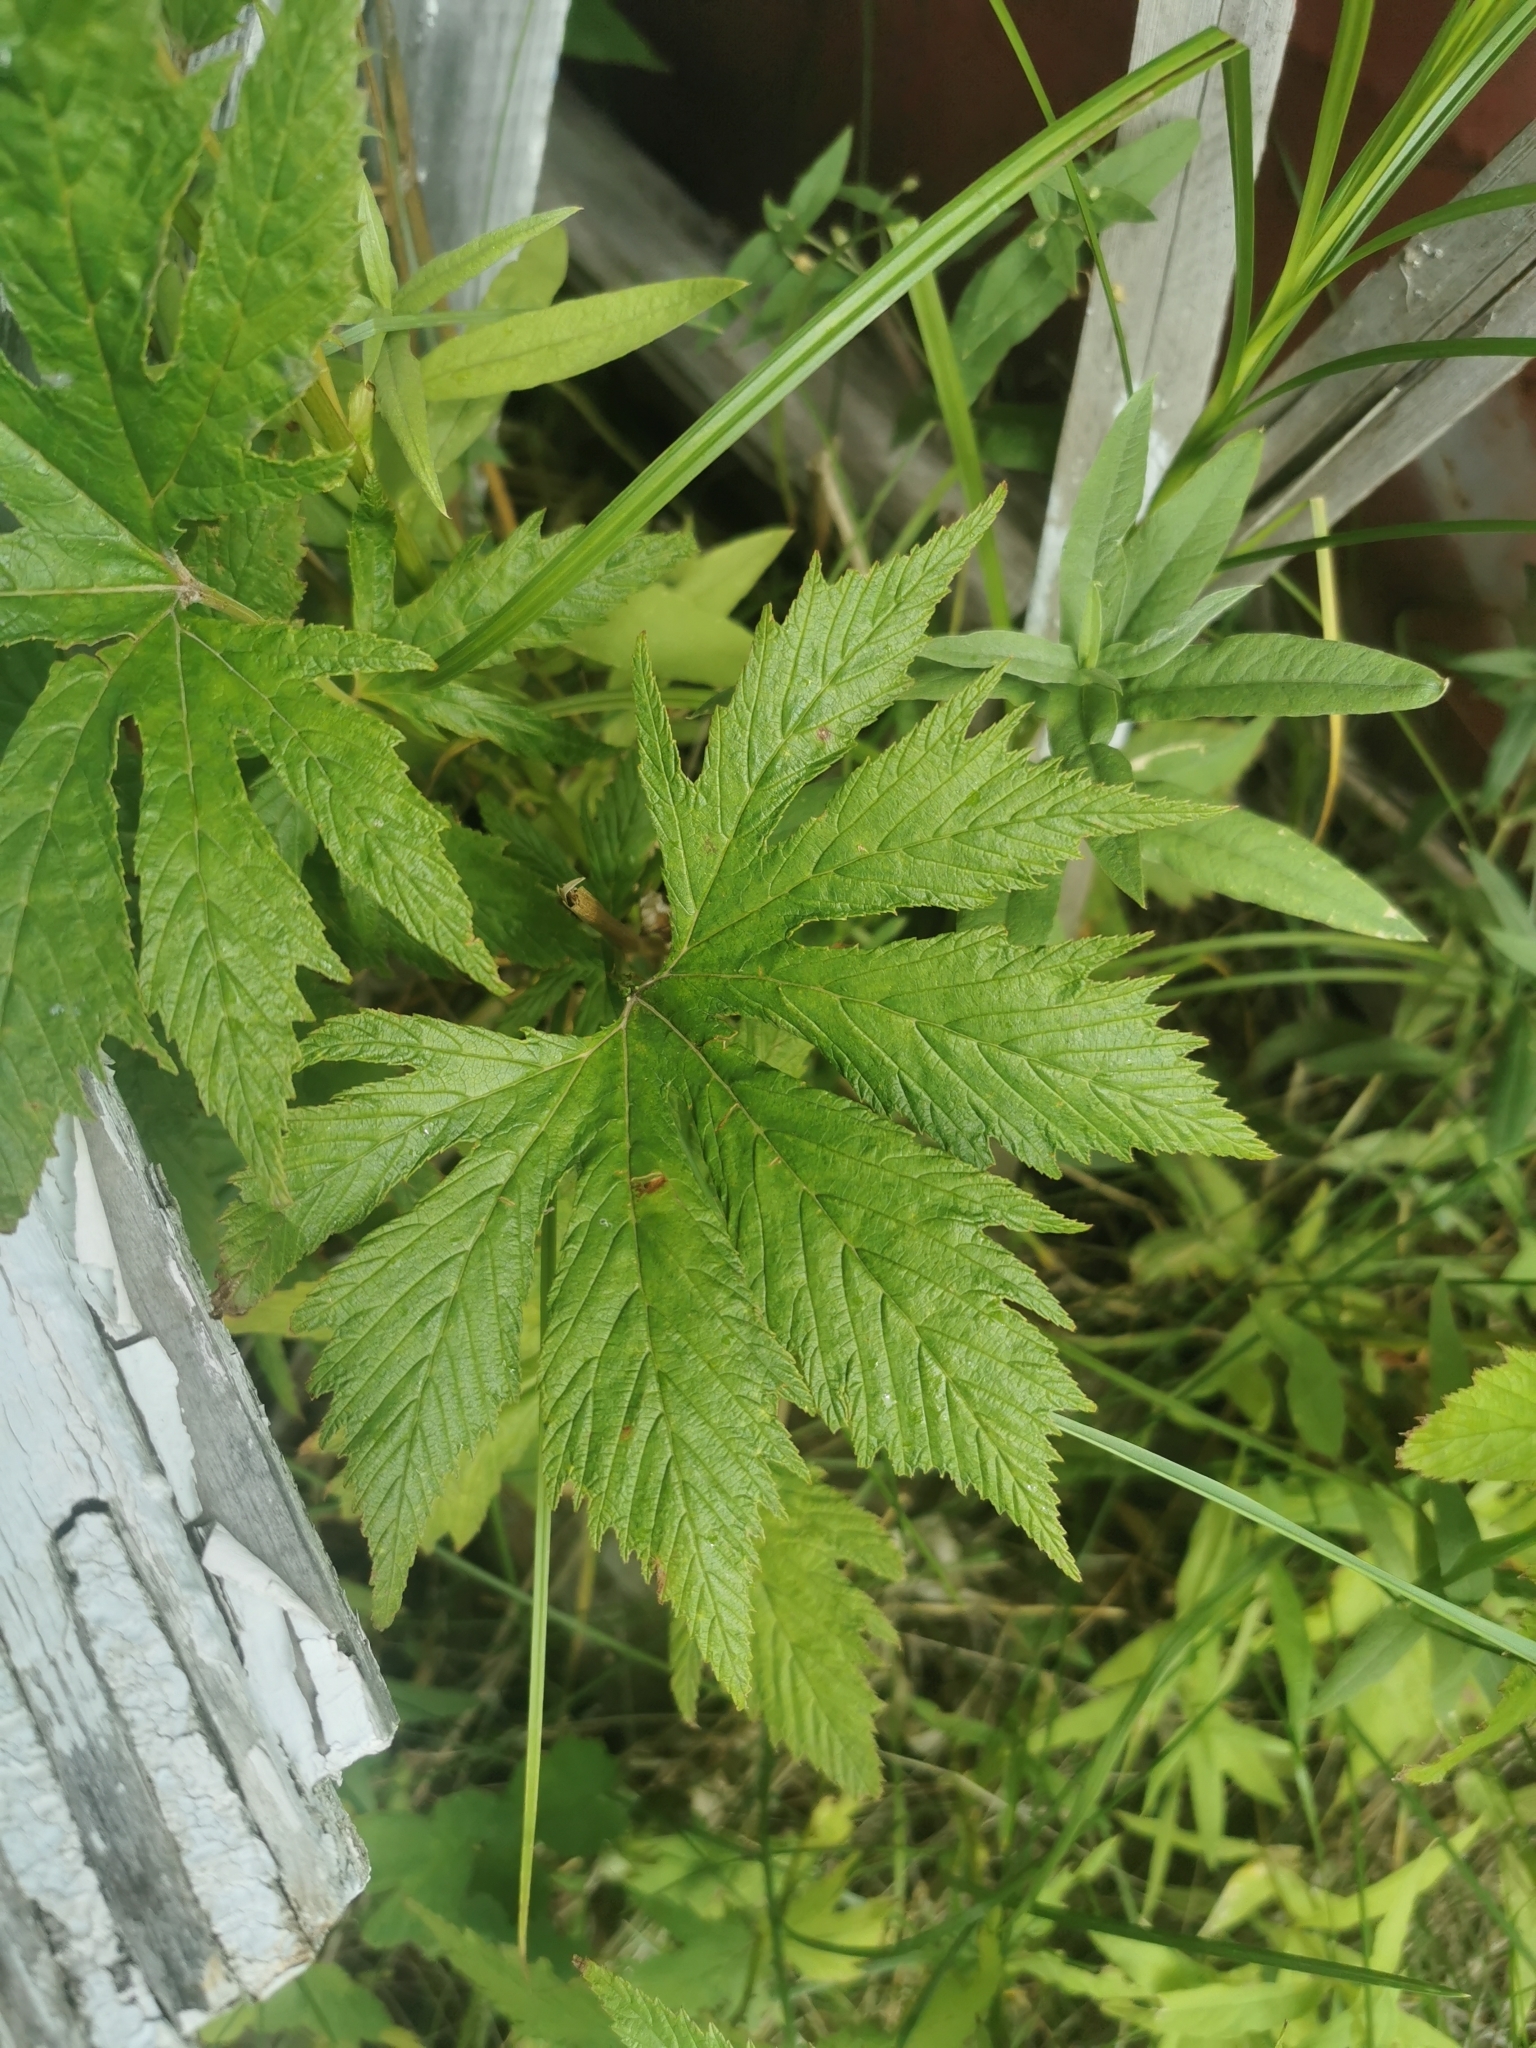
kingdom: Plantae
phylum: Tracheophyta
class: Magnoliopsida
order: Rosales
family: Rosaceae
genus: Filipendula
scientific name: Filipendula digitata
